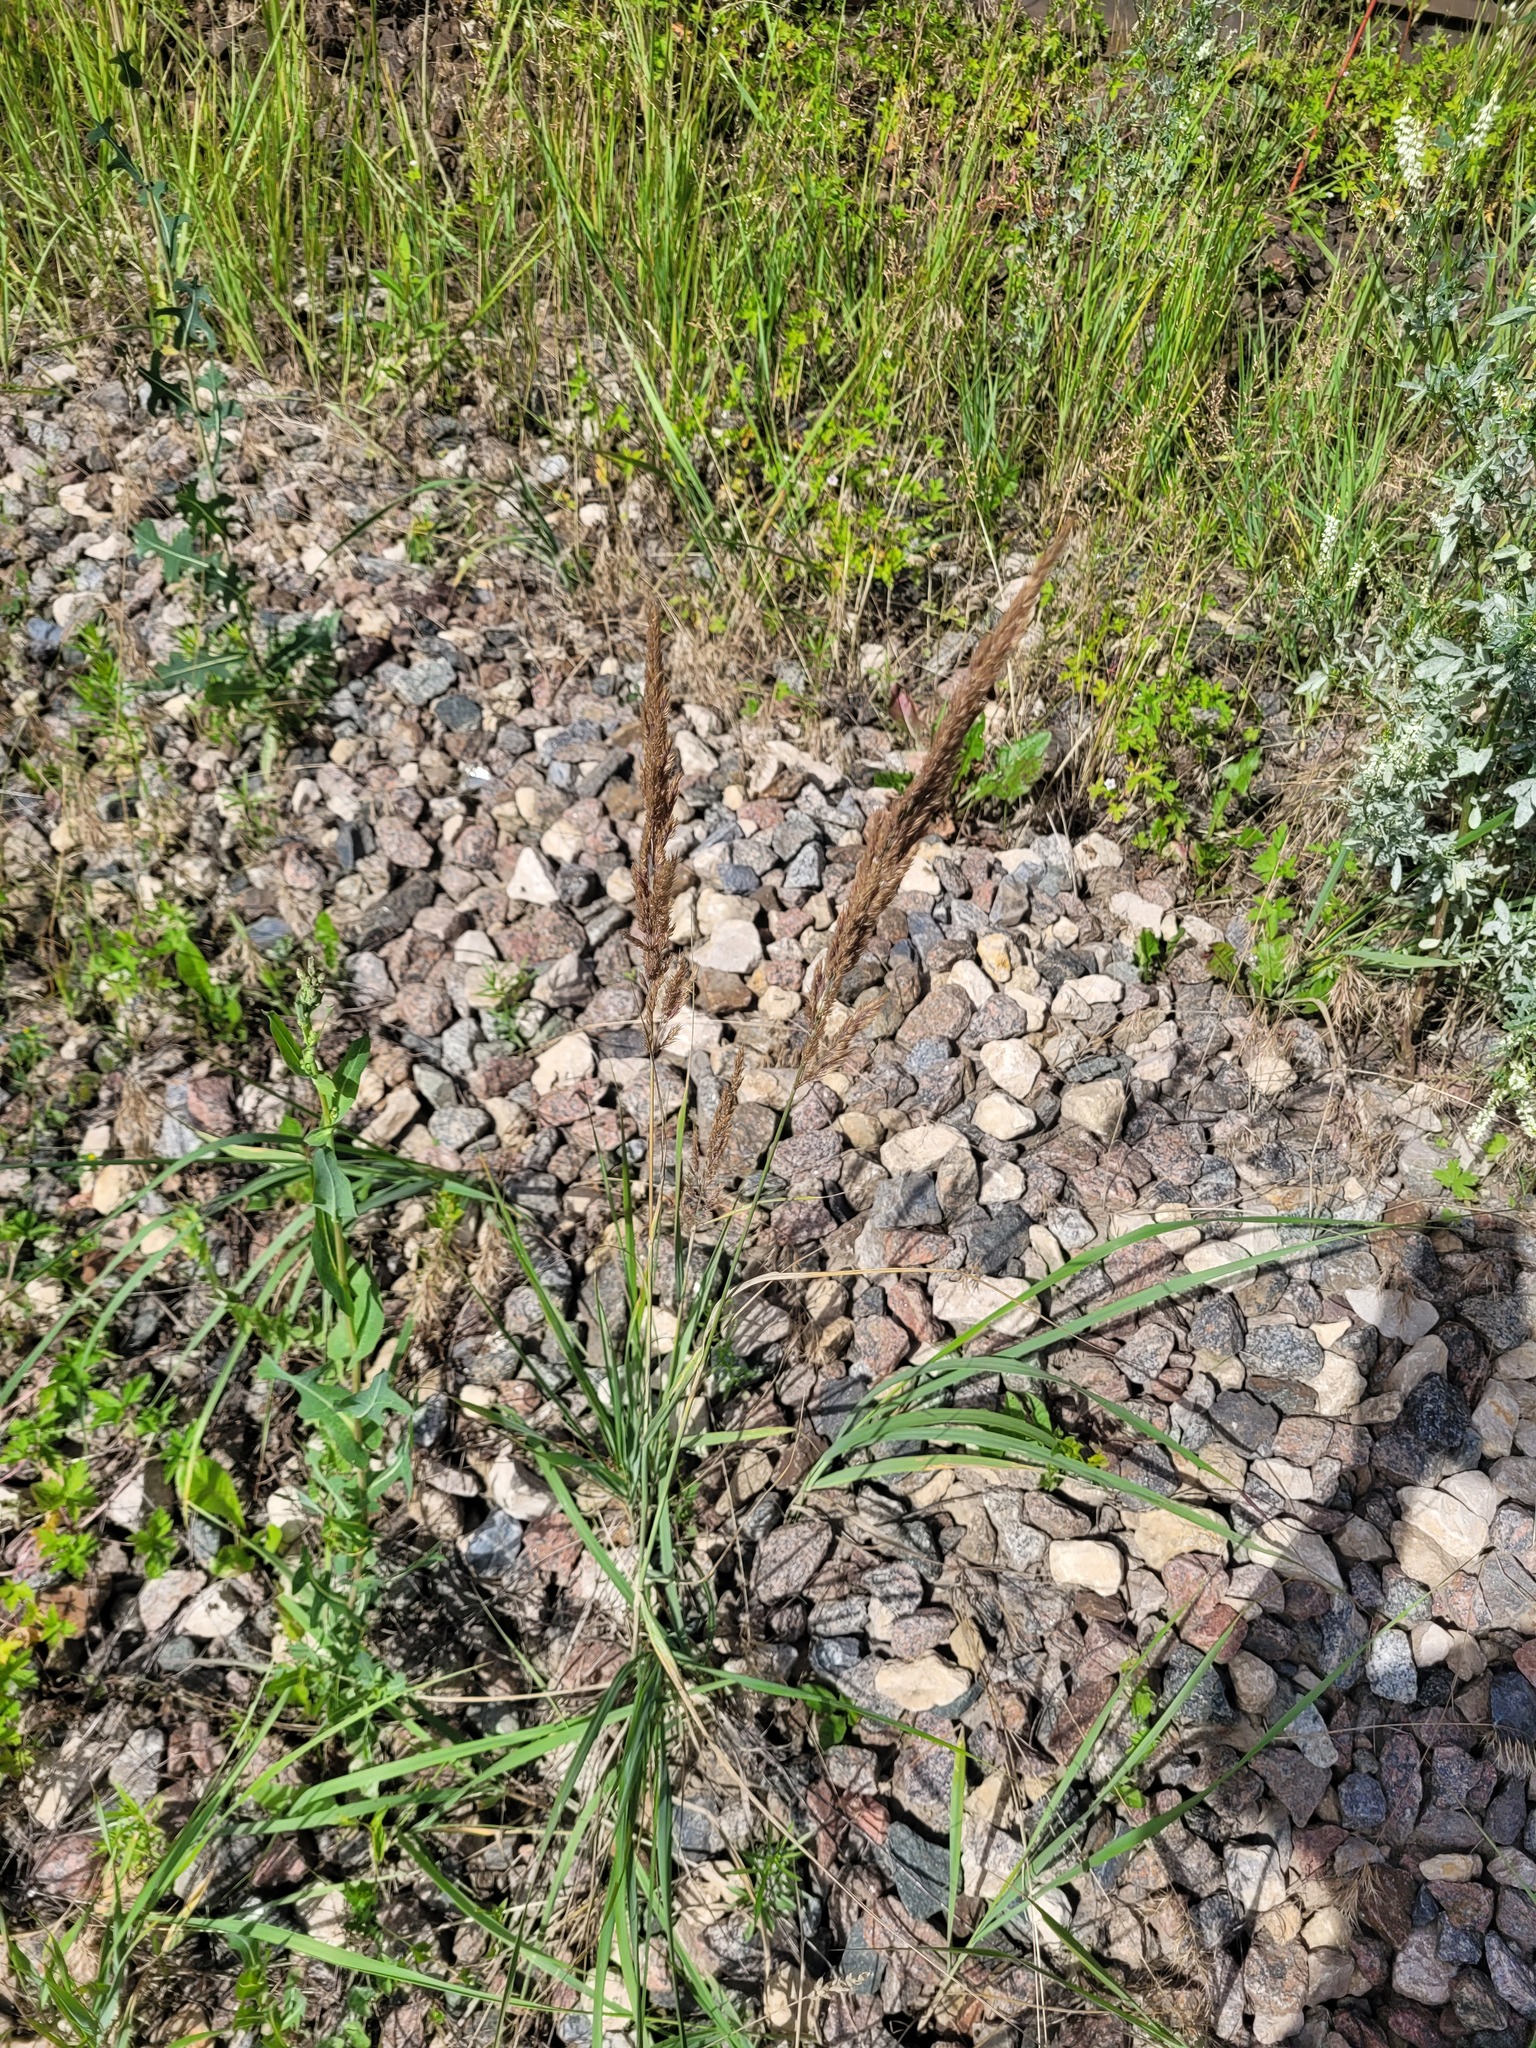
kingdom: Plantae
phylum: Tracheophyta
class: Liliopsida
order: Poales
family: Poaceae
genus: Calamagrostis
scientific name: Calamagrostis epigejos
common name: Wood small-reed
